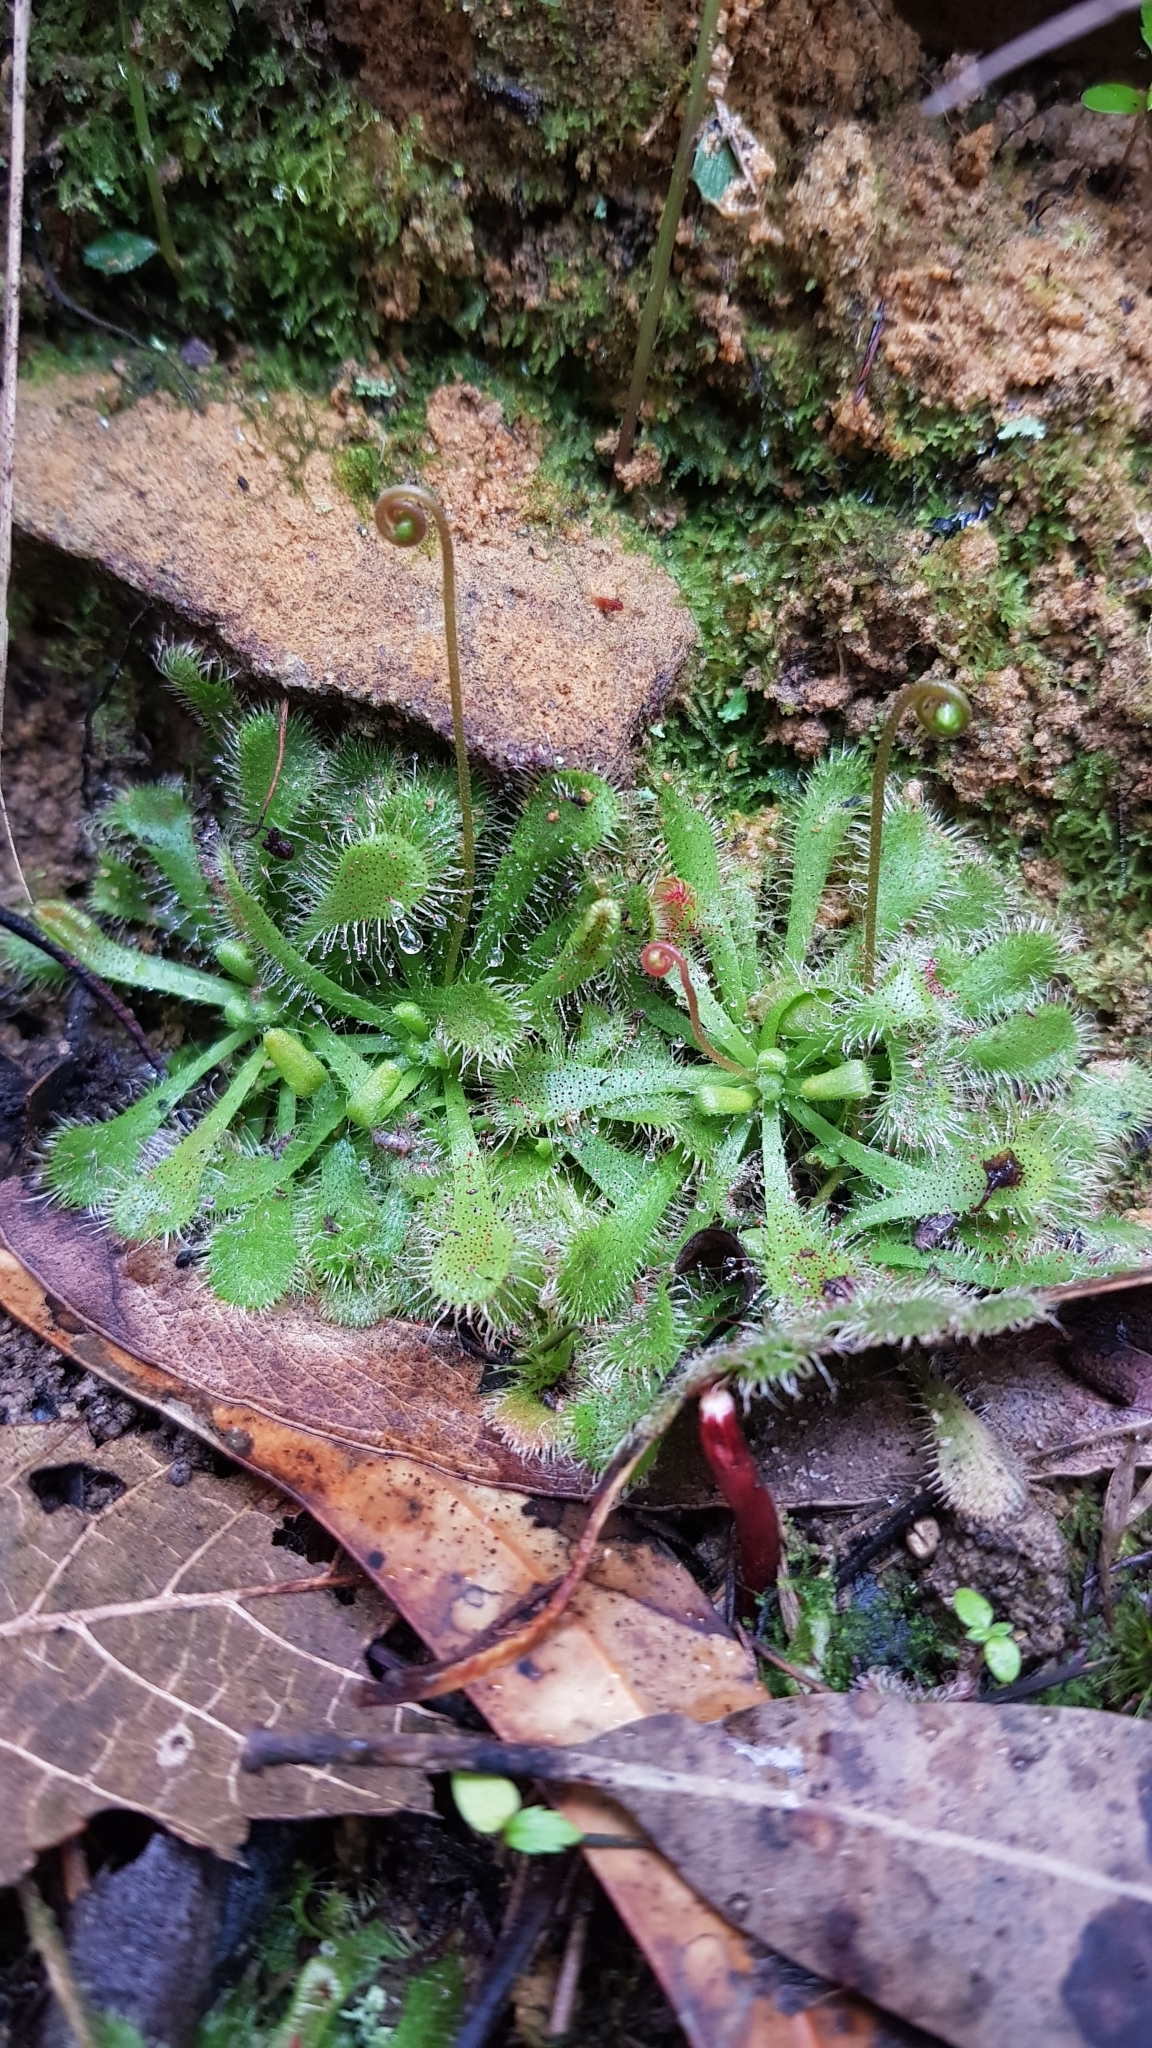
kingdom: Plantae
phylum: Tracheophyta
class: Magnoliopsida
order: Caryophyllales
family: Droseraceae
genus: Drosera
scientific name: Drosera spatulata
